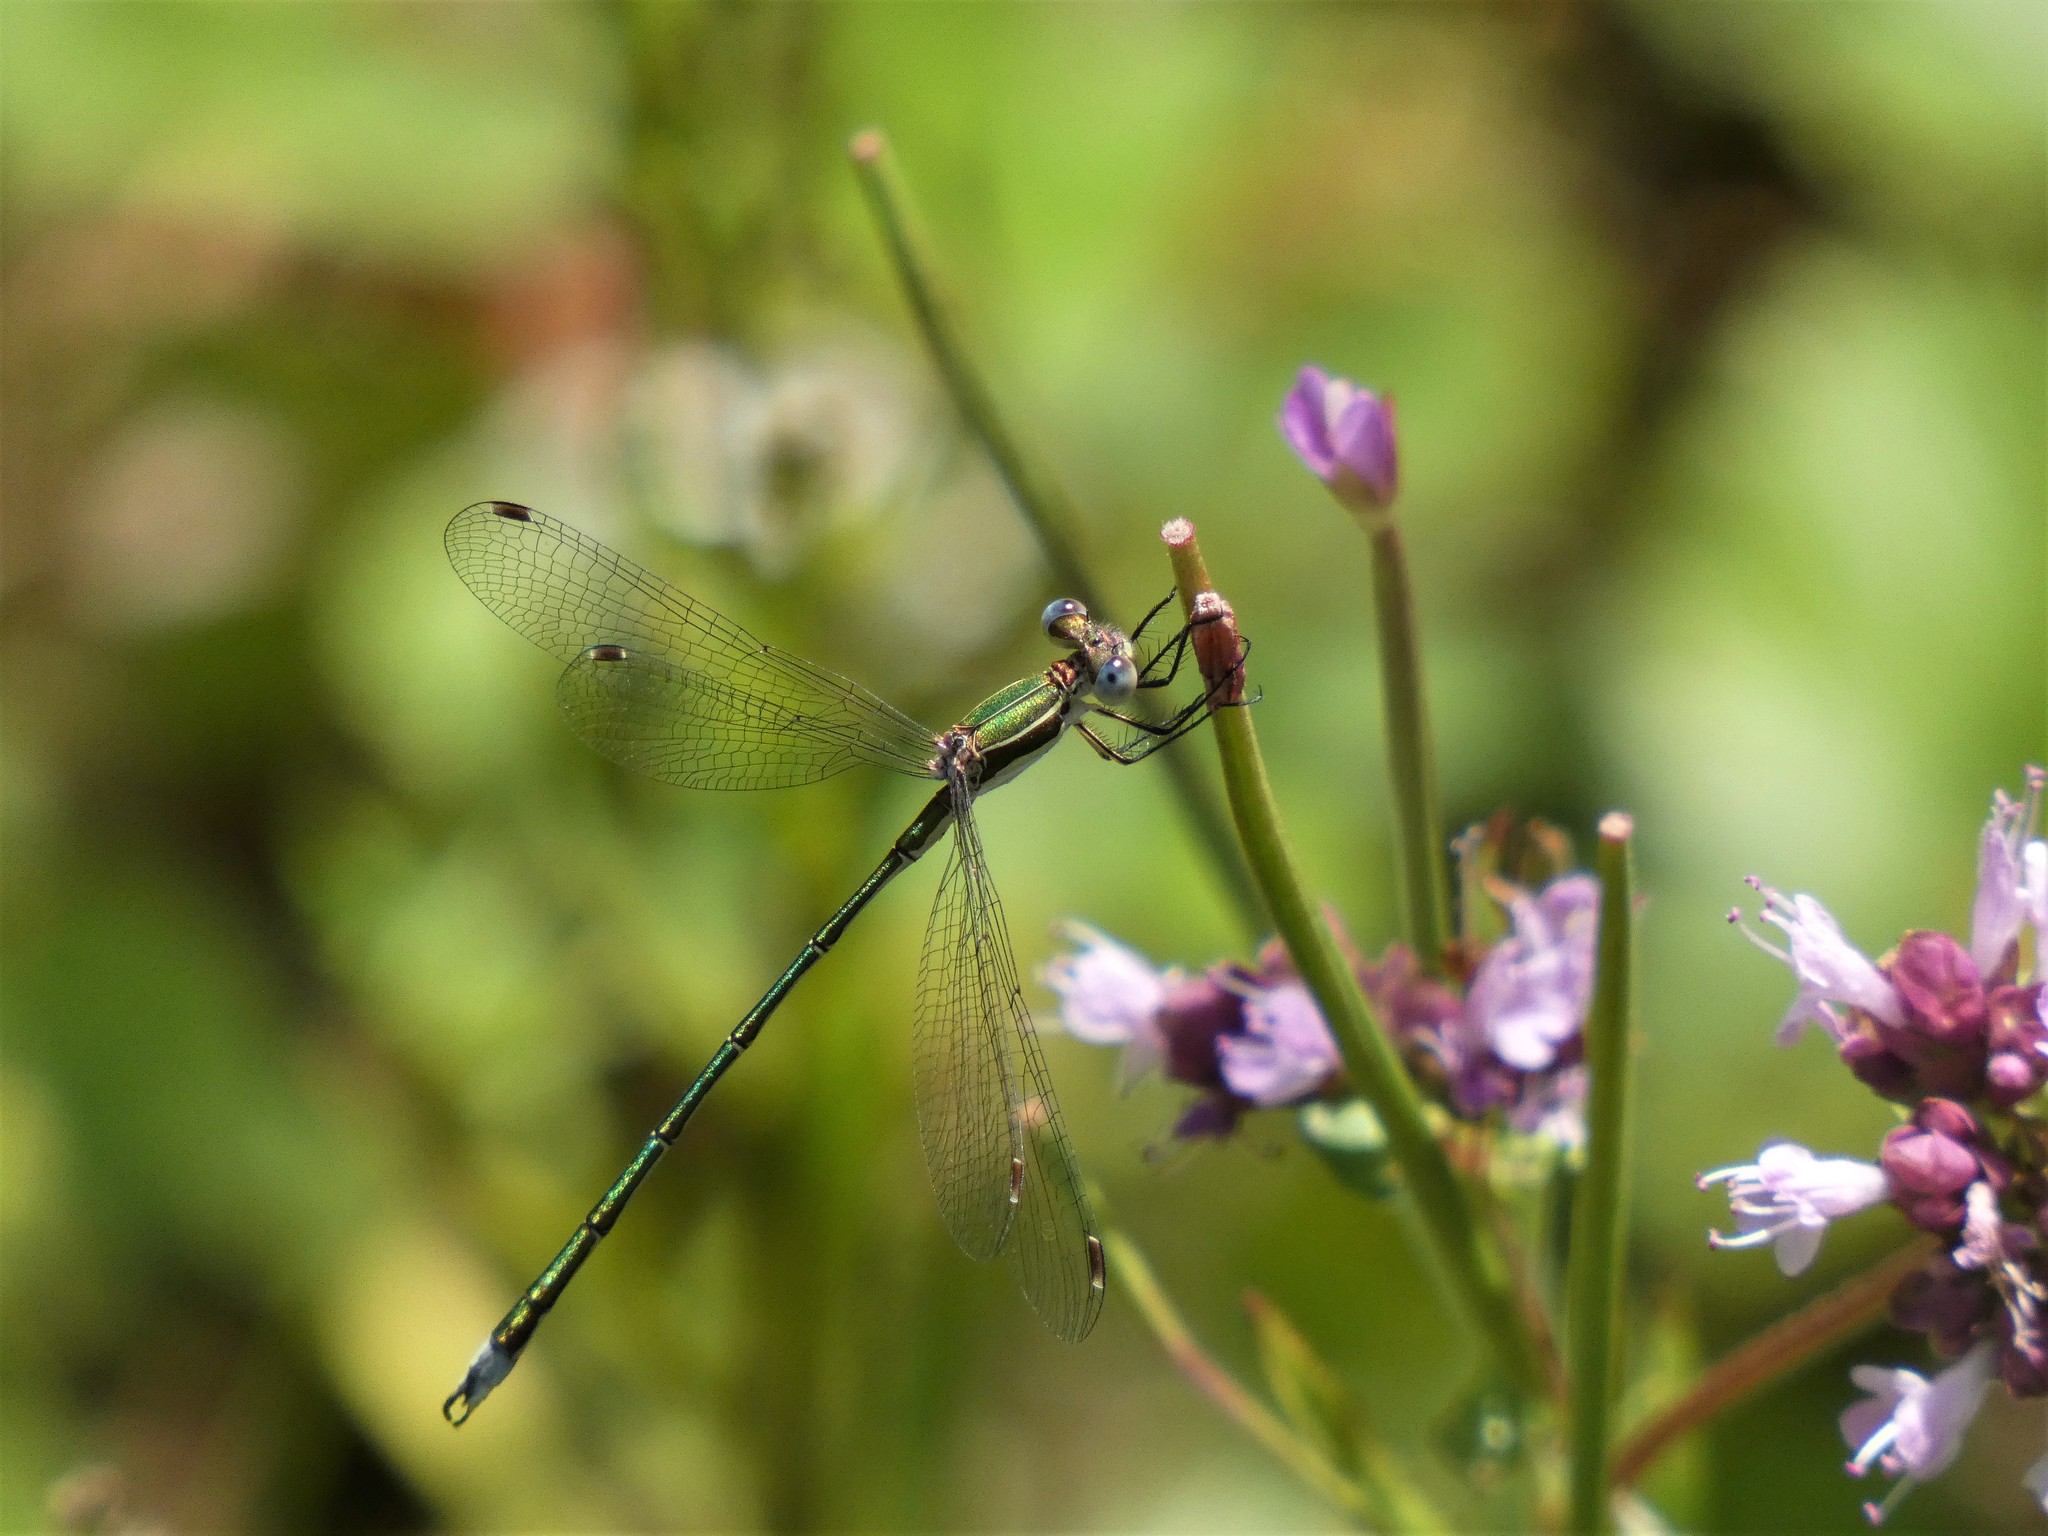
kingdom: Animalia
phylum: Arthropoda
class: Insecta
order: Odonata
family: Lestidae
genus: Lestes
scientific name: Lestes virens
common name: Small emerald spreadwing
